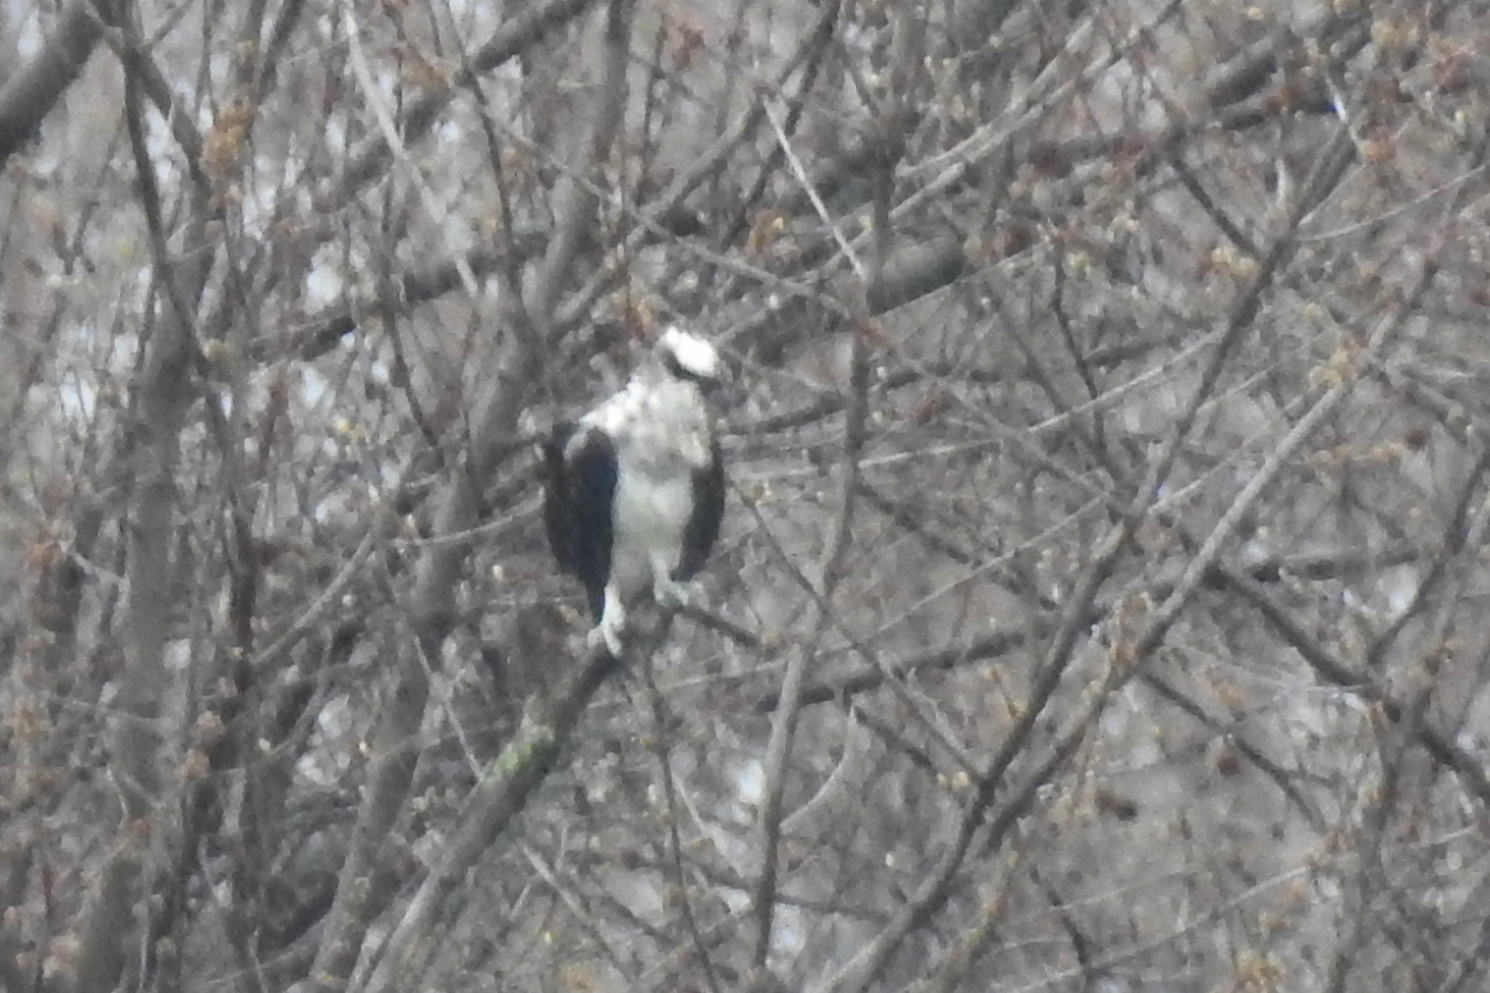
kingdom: Animalia
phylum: Chordata
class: Aves
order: Accipitriformes
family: Pandionidae
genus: Pandion
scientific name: Pandion haliaetus
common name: Osprey
